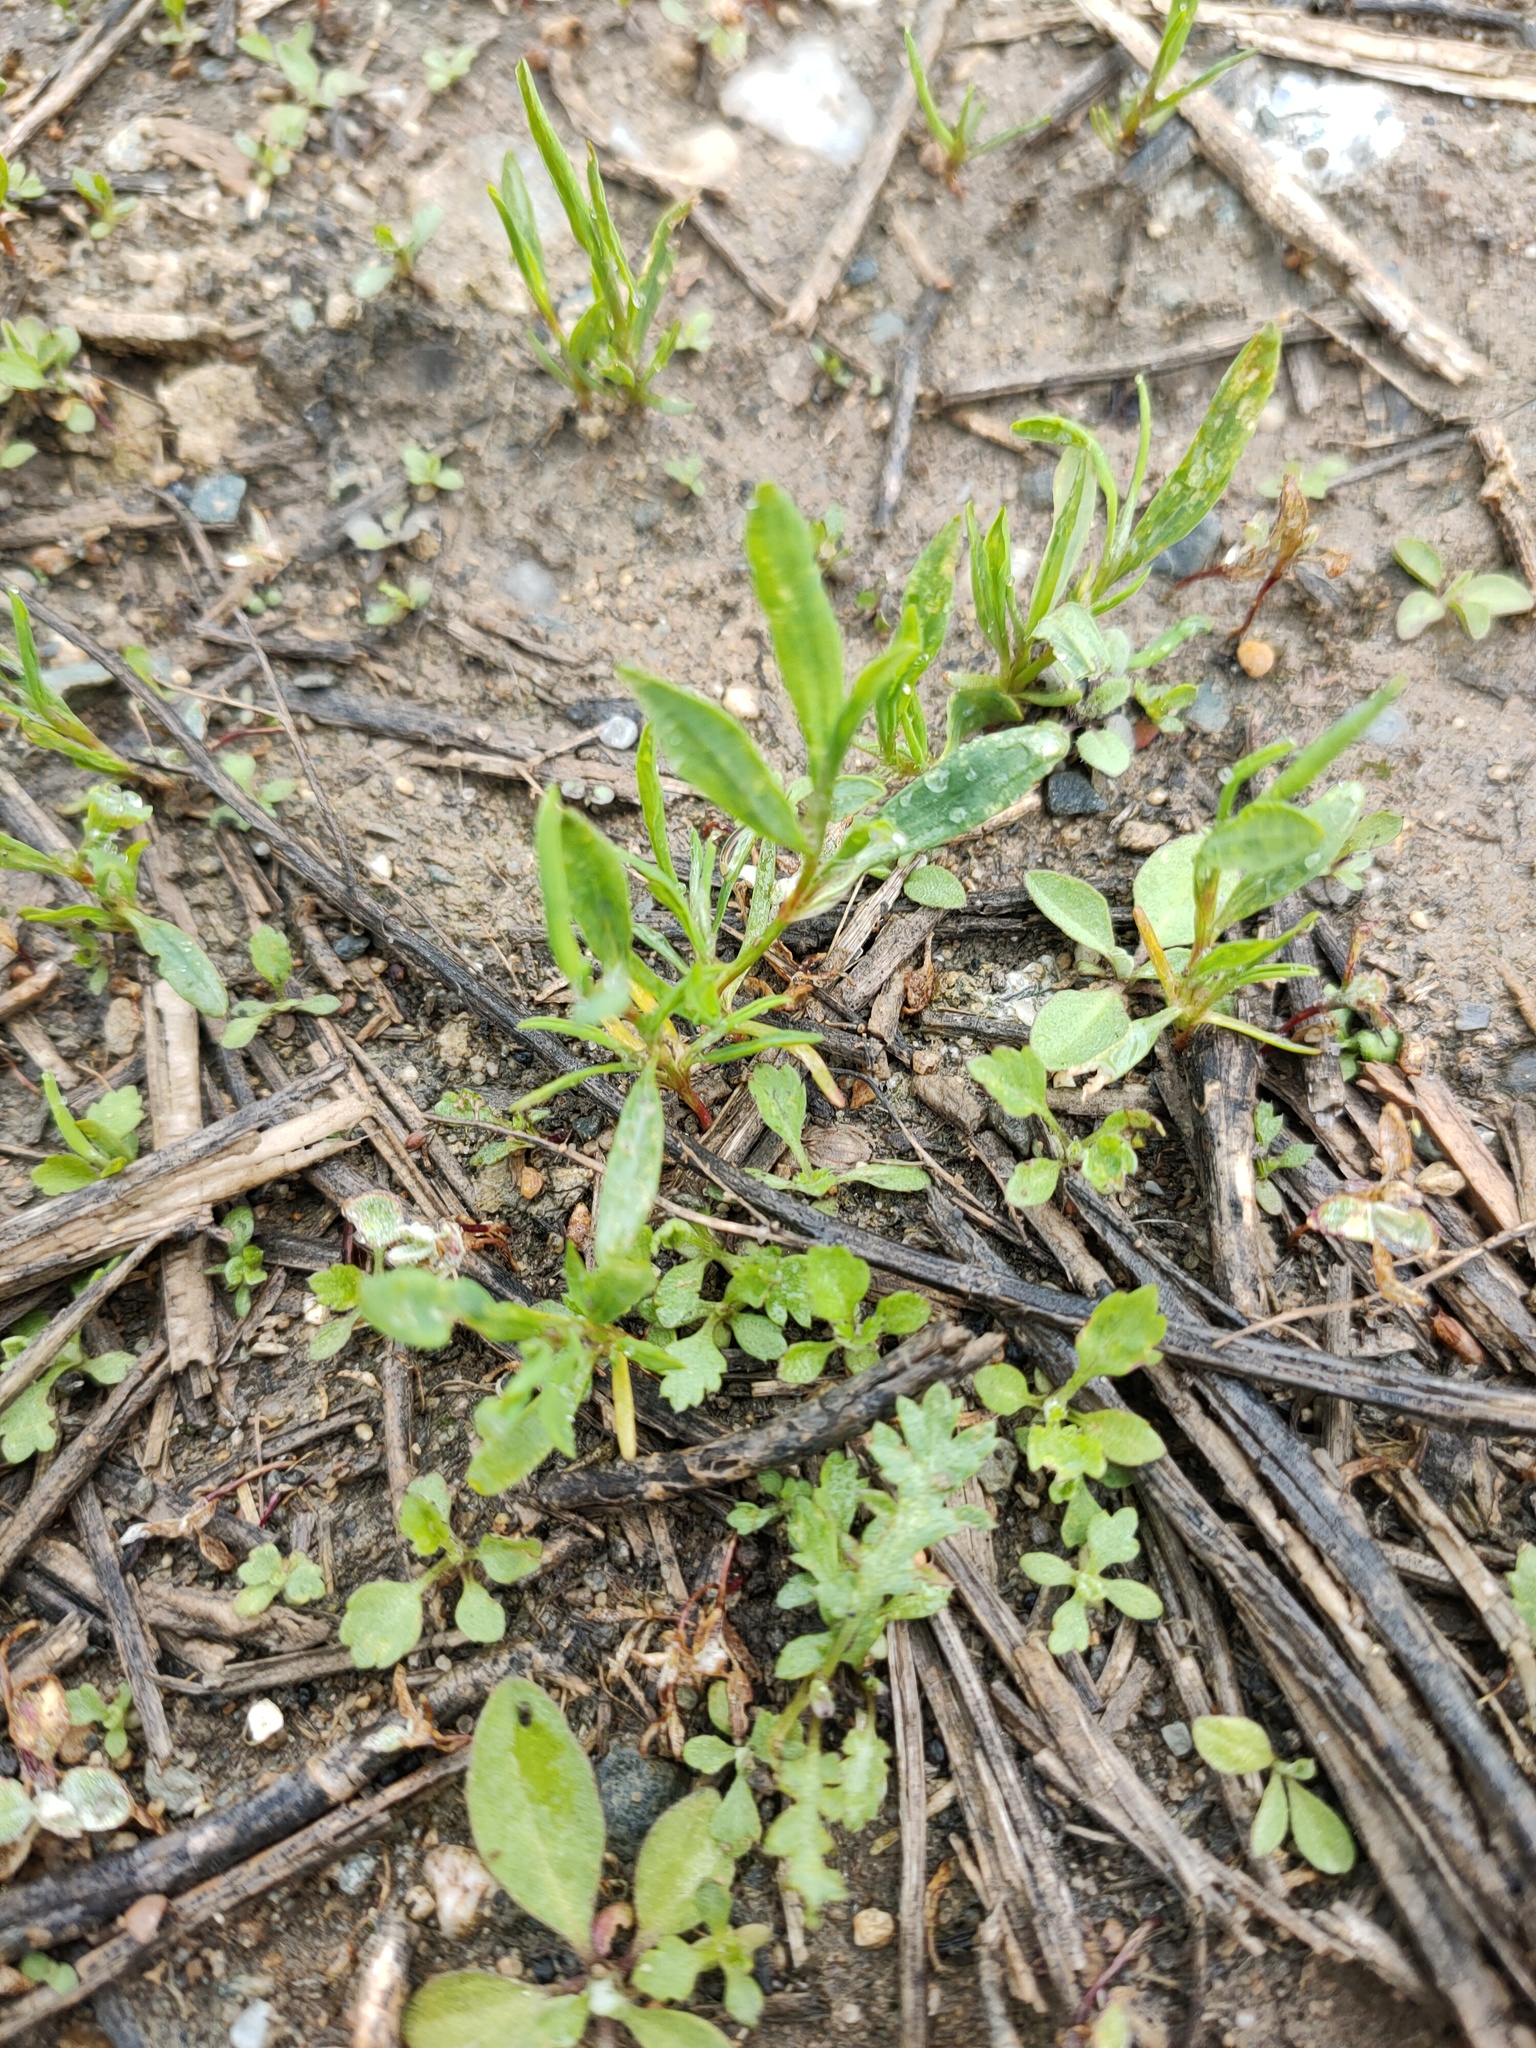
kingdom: Plantae
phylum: Tracheophyta
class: Magnoliopsida
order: Caryophyllales
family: Polygonaceae
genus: Polygonum
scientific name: Polygonum
